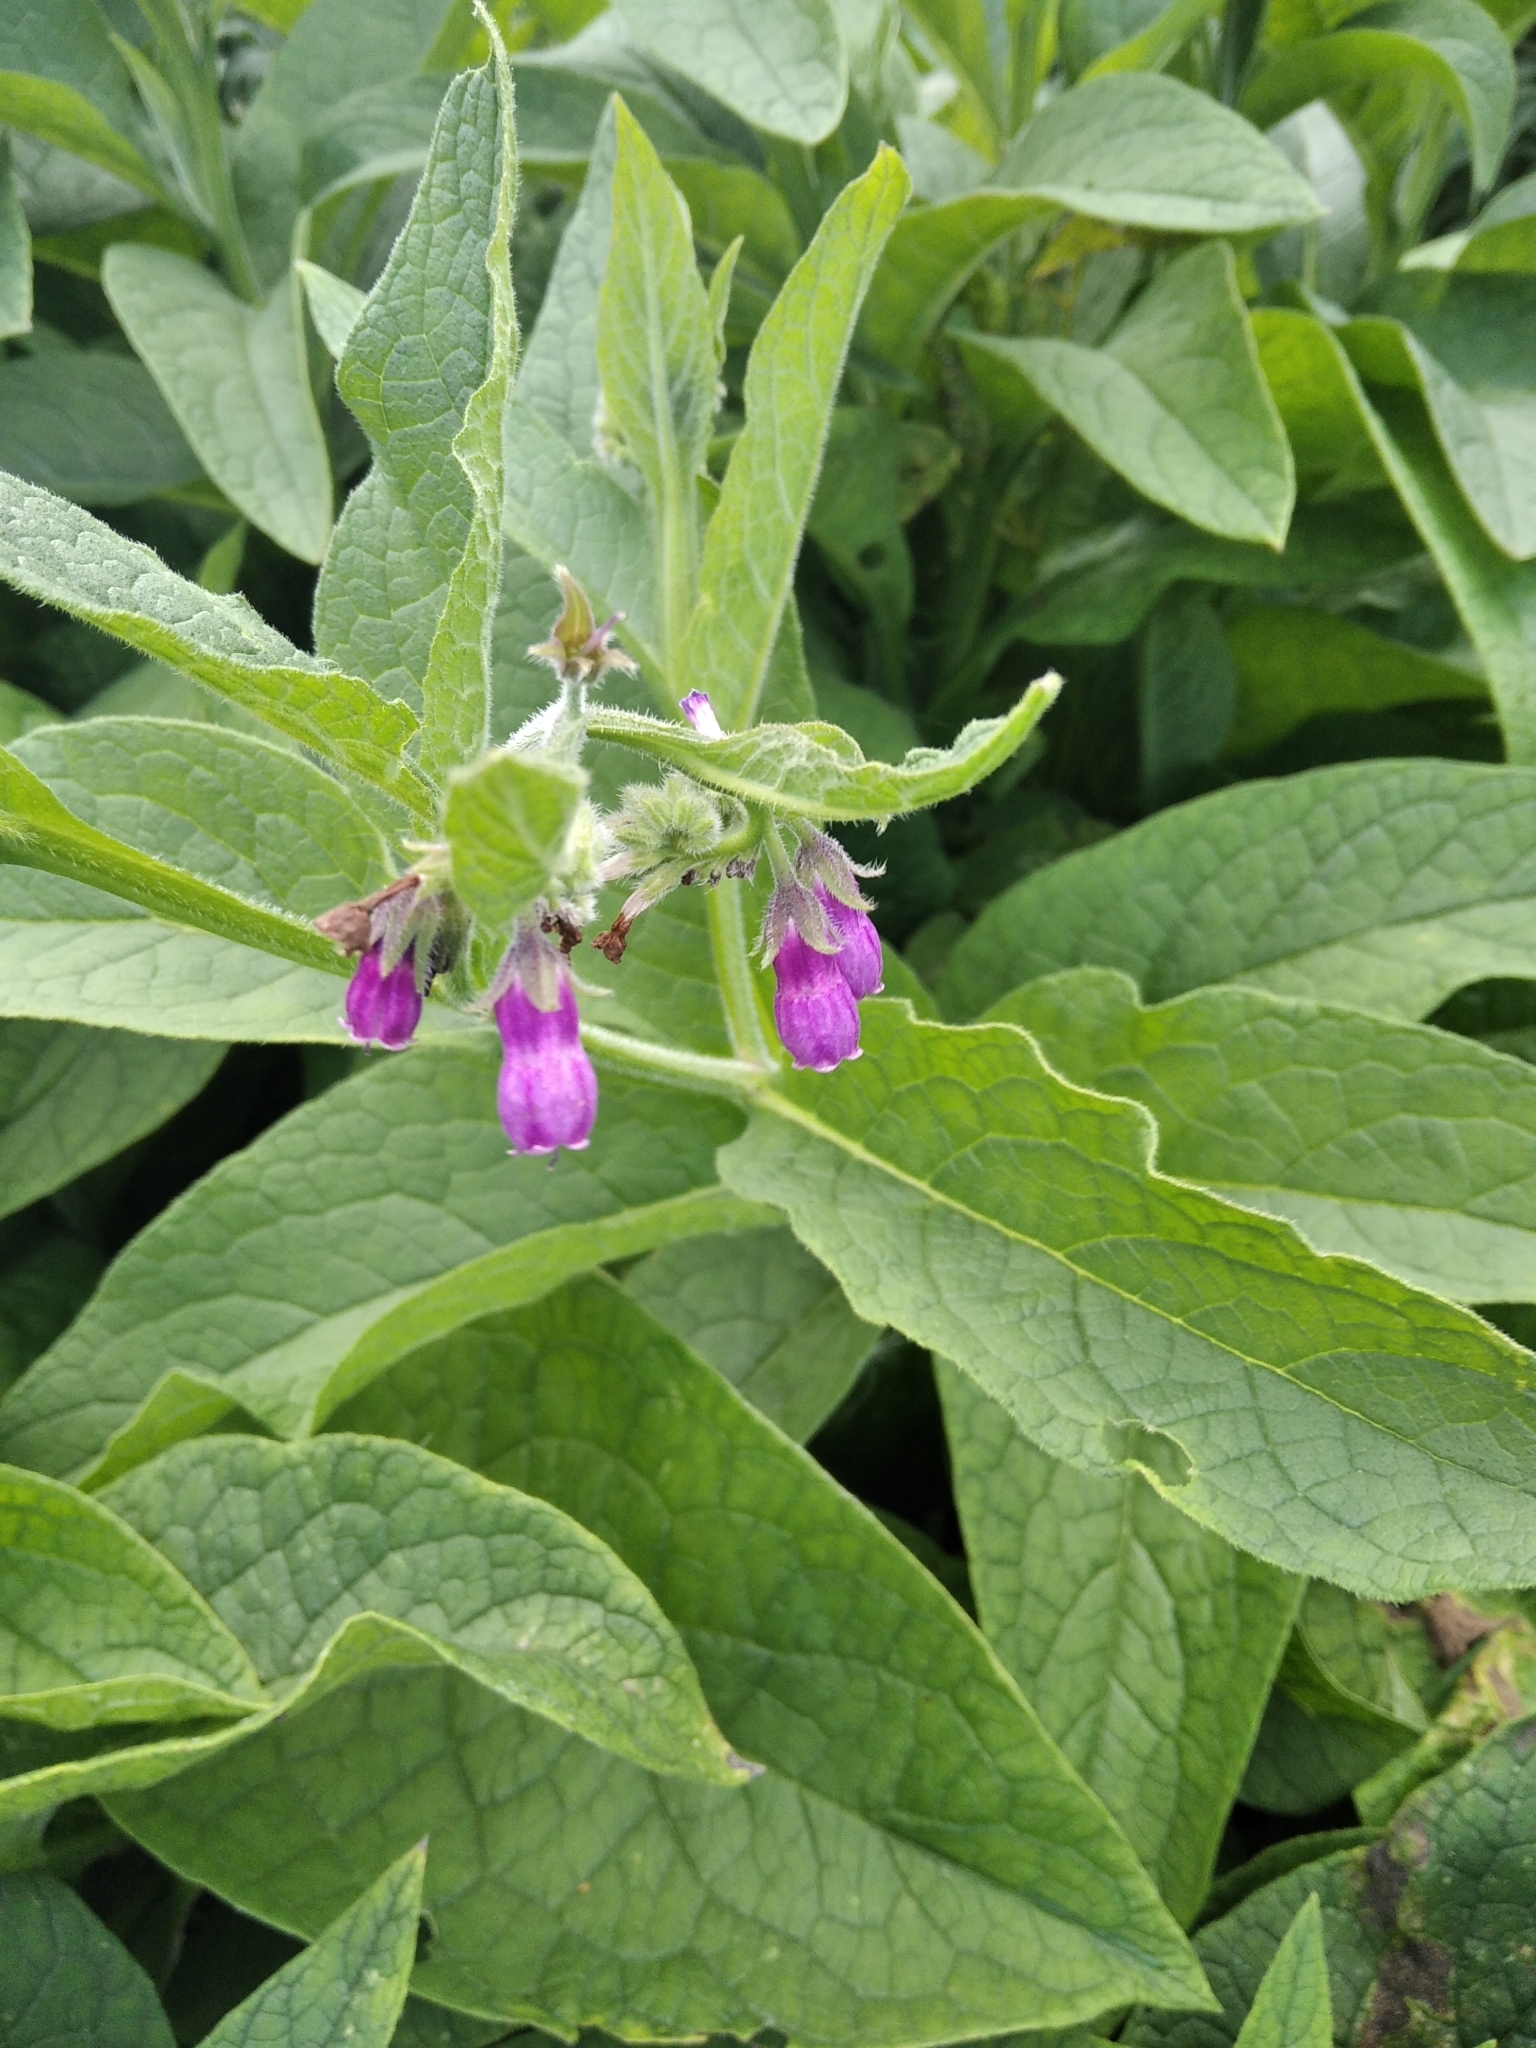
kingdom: Plantae
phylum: Tracheophyta
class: Magnoliopsida
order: Boraginales
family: Boraginaceae
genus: Symphytum
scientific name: Symphytum officinale
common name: Common comfrey
